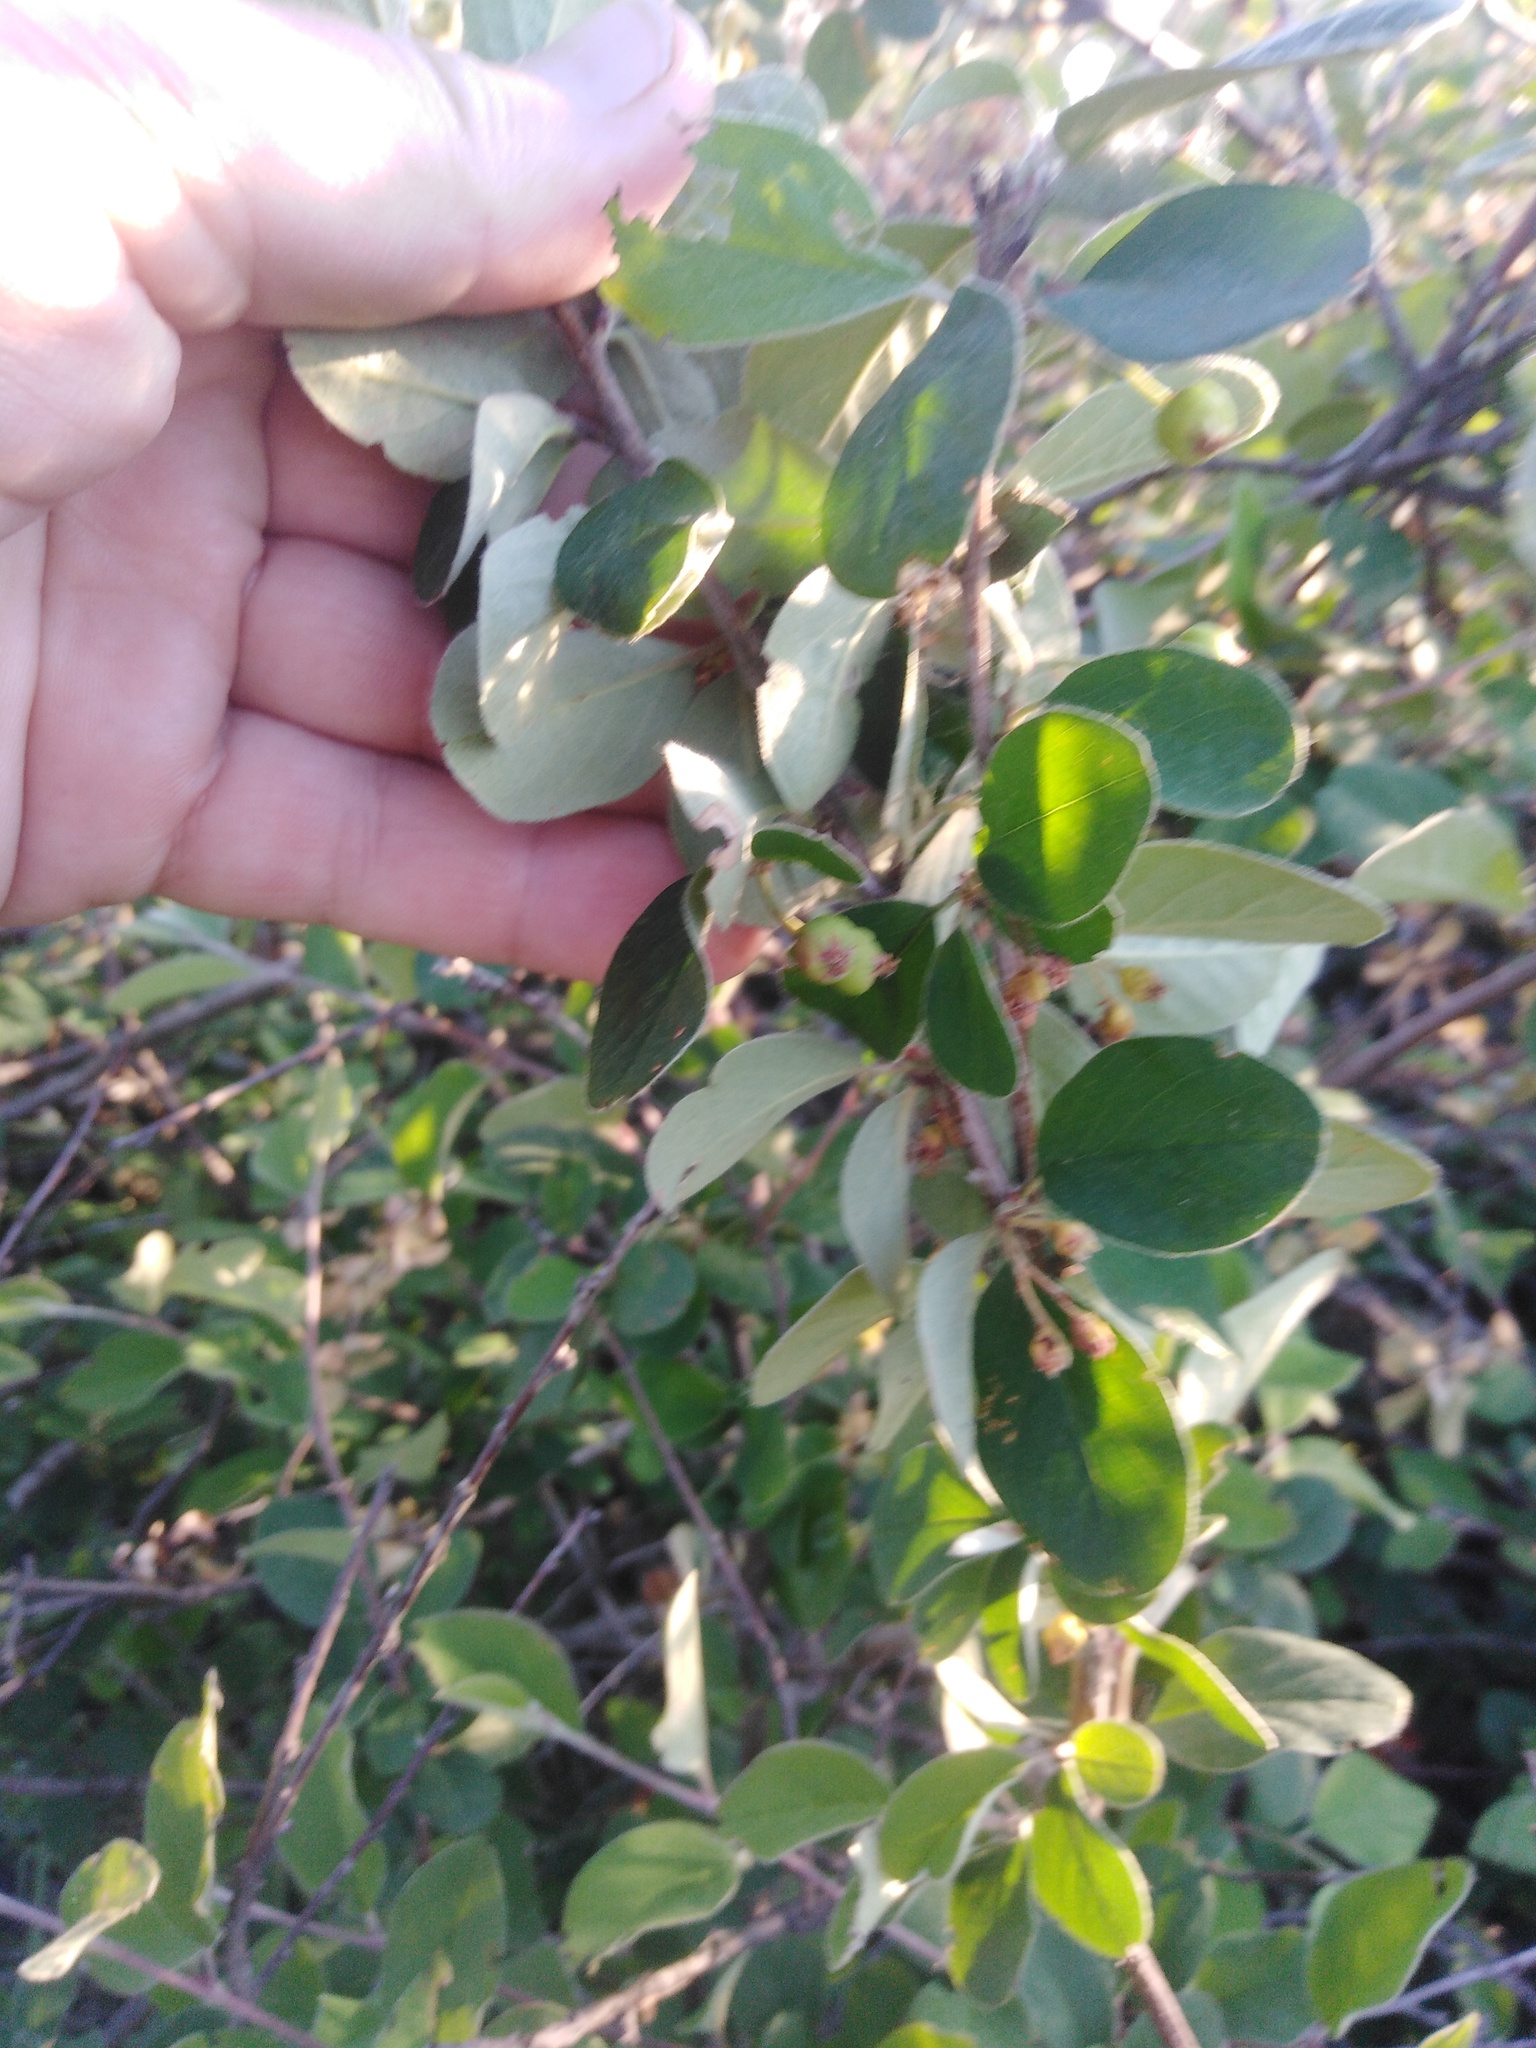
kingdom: Plantae
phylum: Tracheophyta
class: Magnoliopsida
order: Rosales
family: Rosaceae
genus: Cotoneaster
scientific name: Cotoneaster alaunicus
